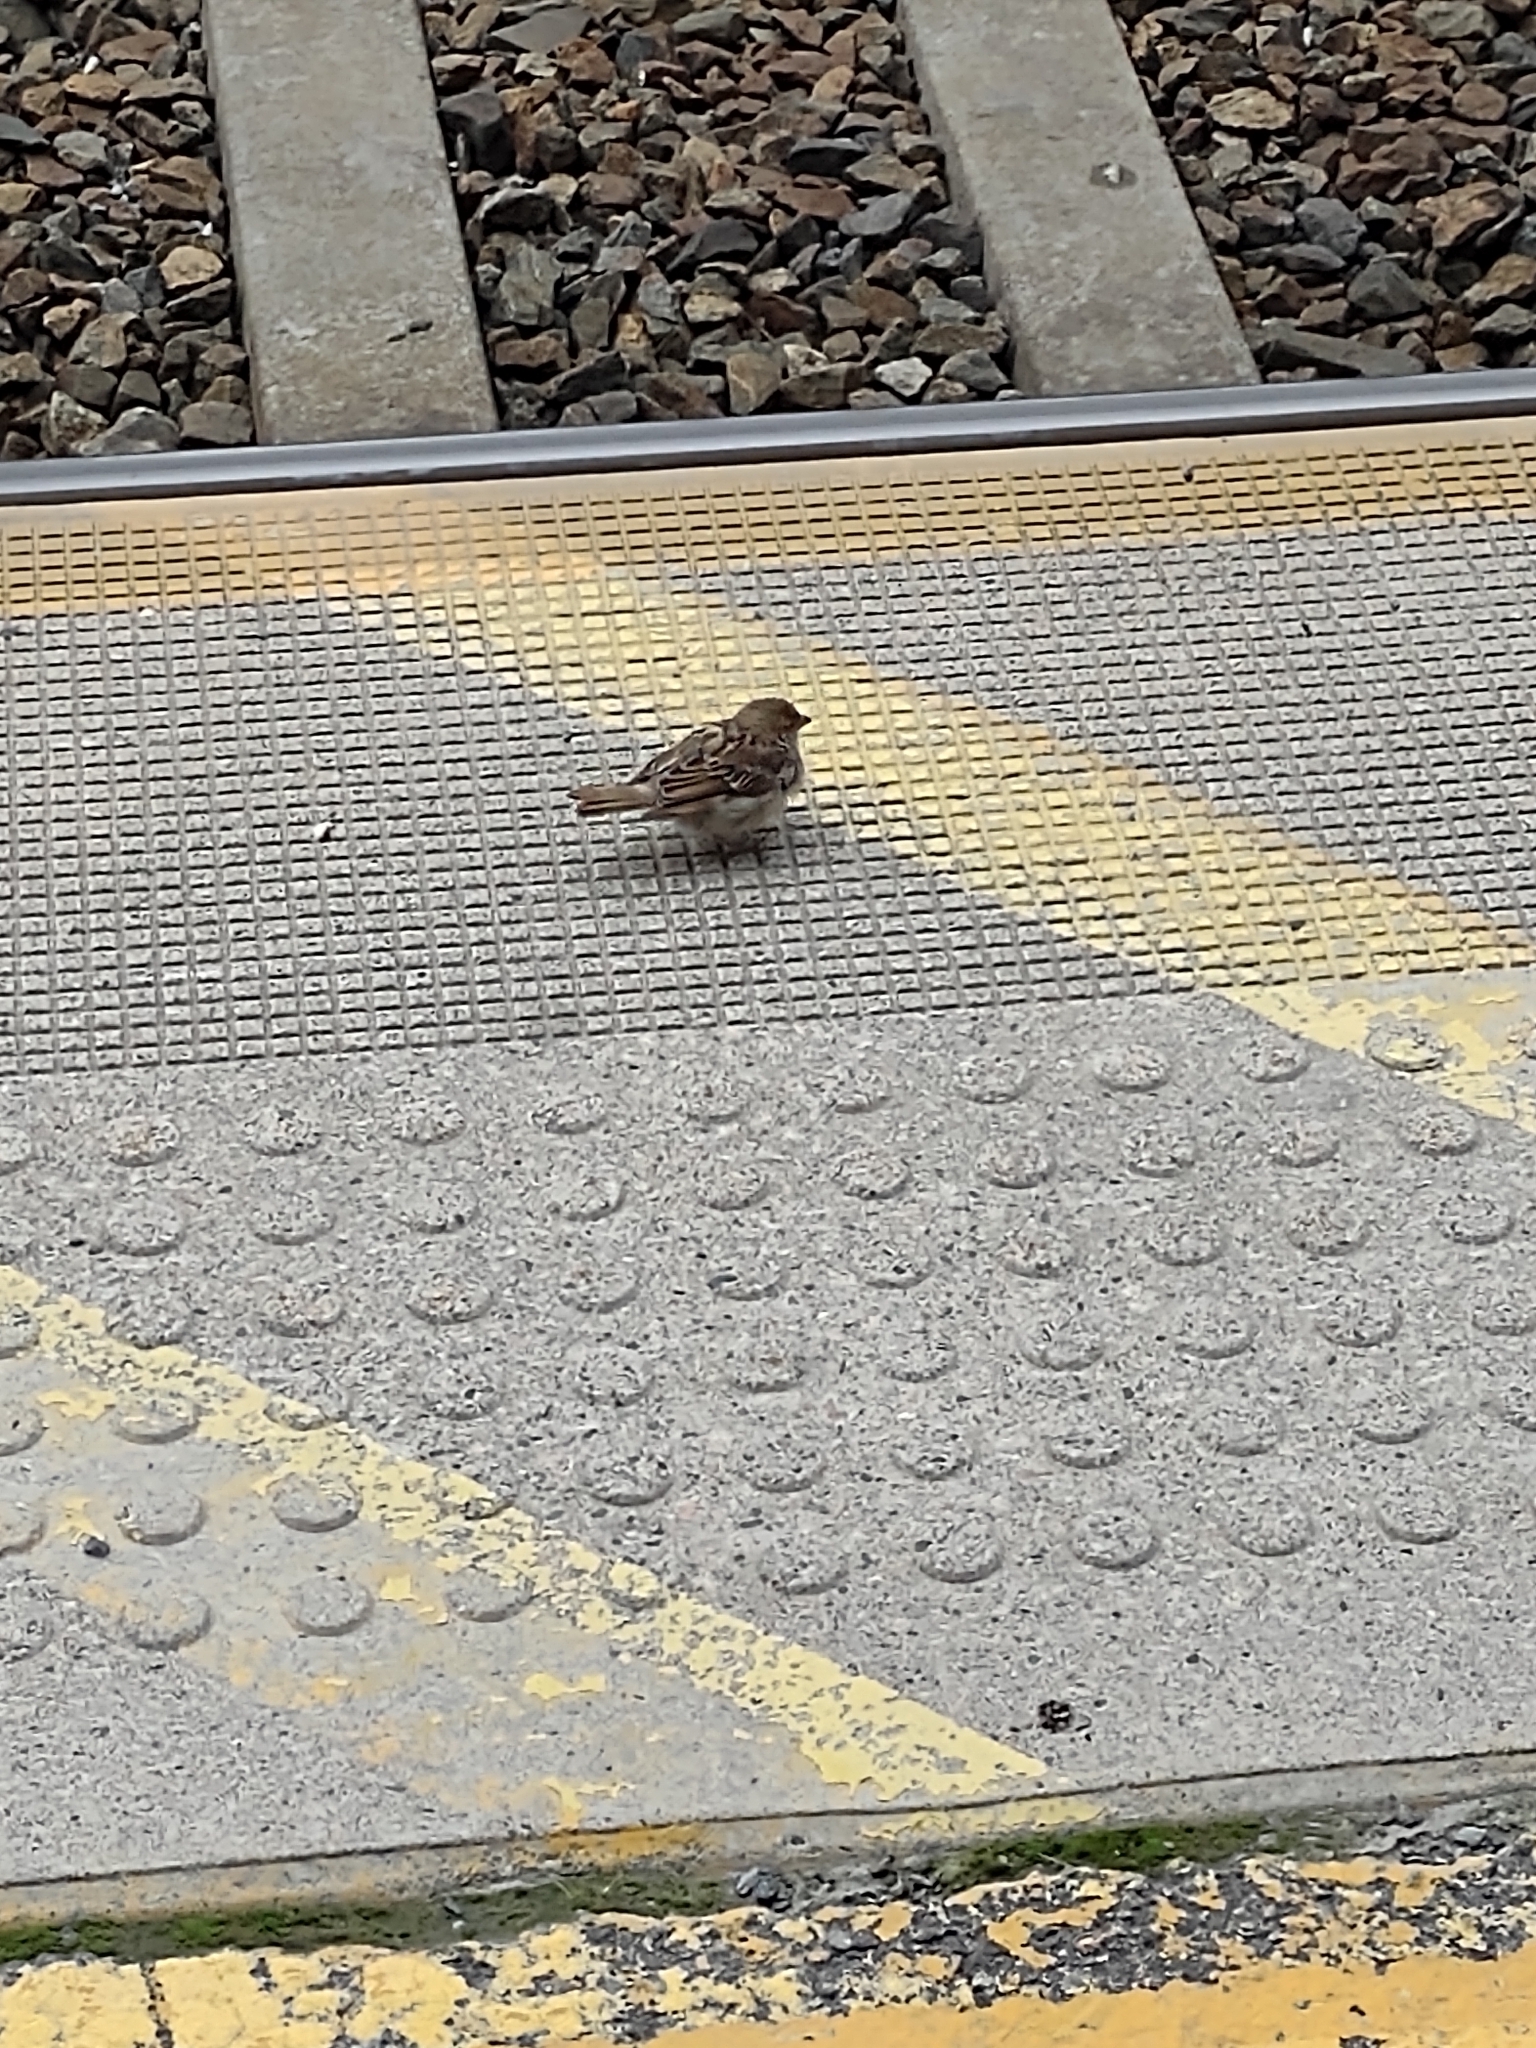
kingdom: Animalia
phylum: Chordata
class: Aves
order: Passeriformes
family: Passeridae
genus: Passer
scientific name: Passer domesticus
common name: House sparrow
